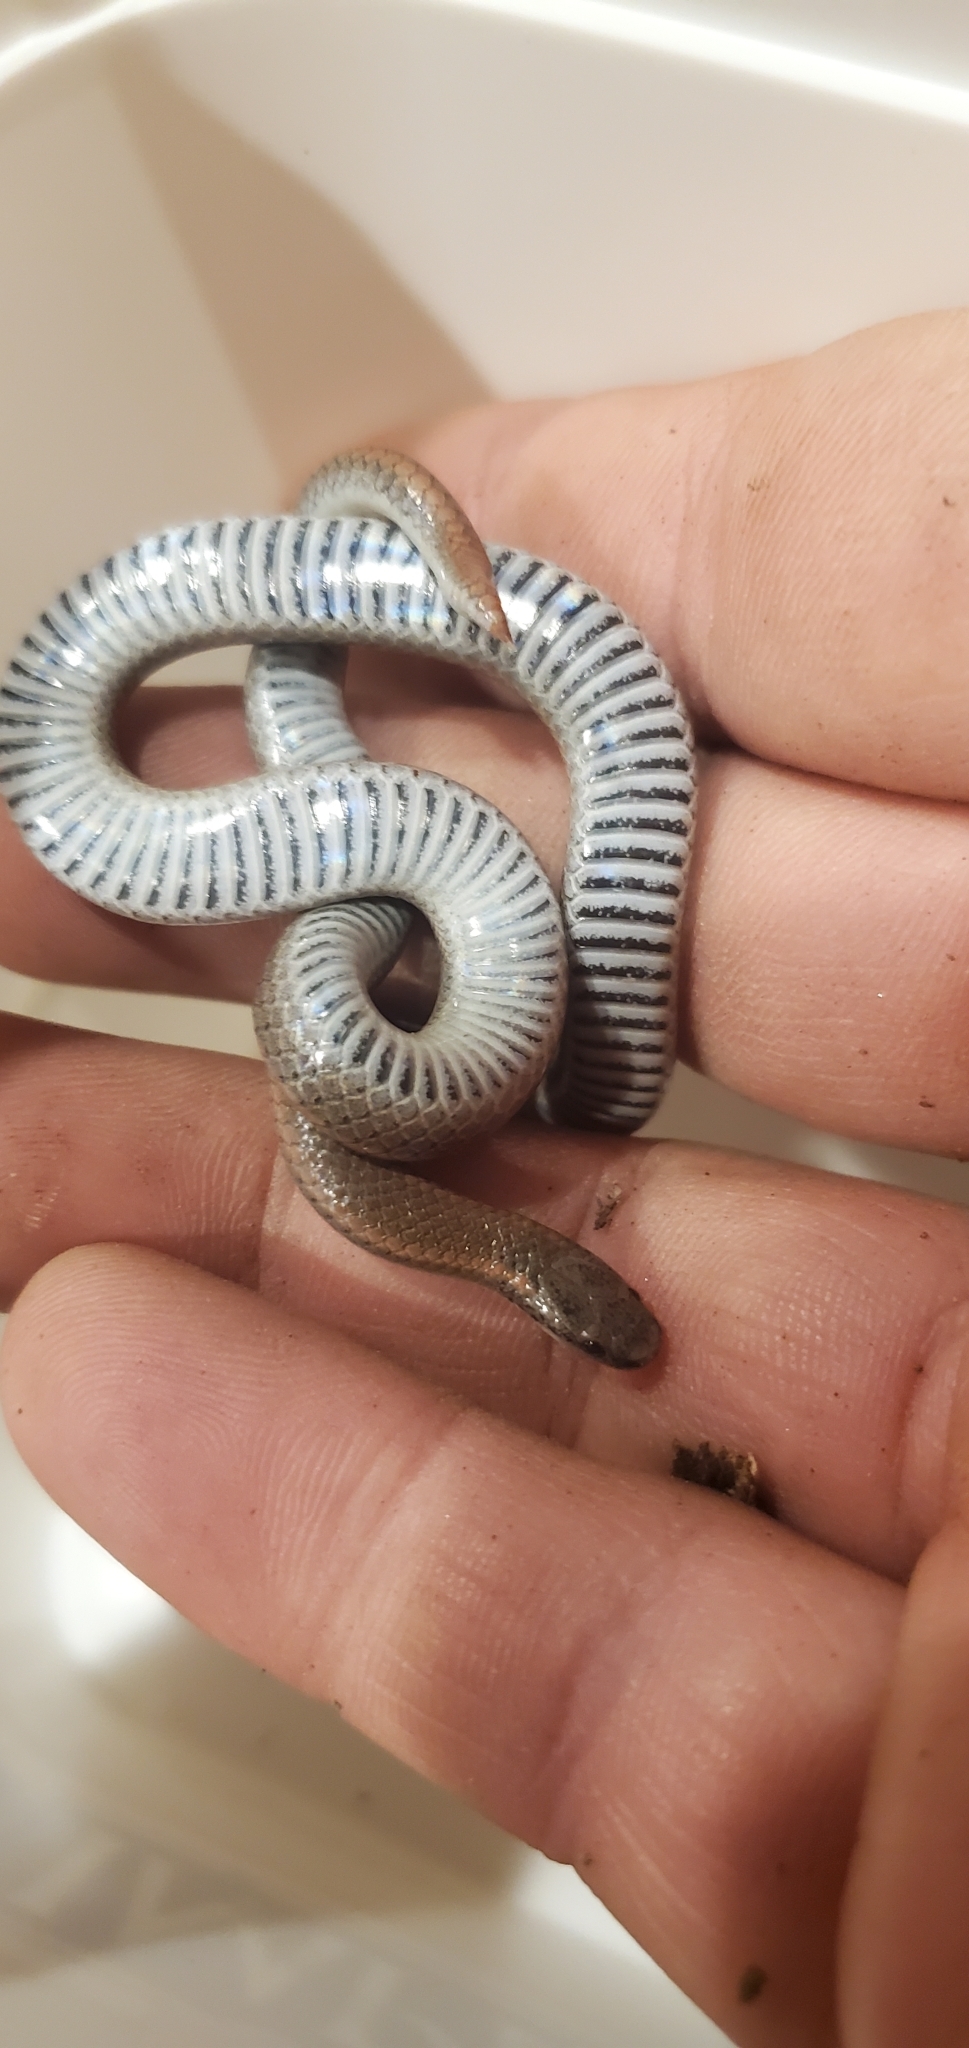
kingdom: Animalia
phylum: Chordata
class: Squamata
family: Colubridae
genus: Contia
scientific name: Contia tenuis
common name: Sharptail snake
